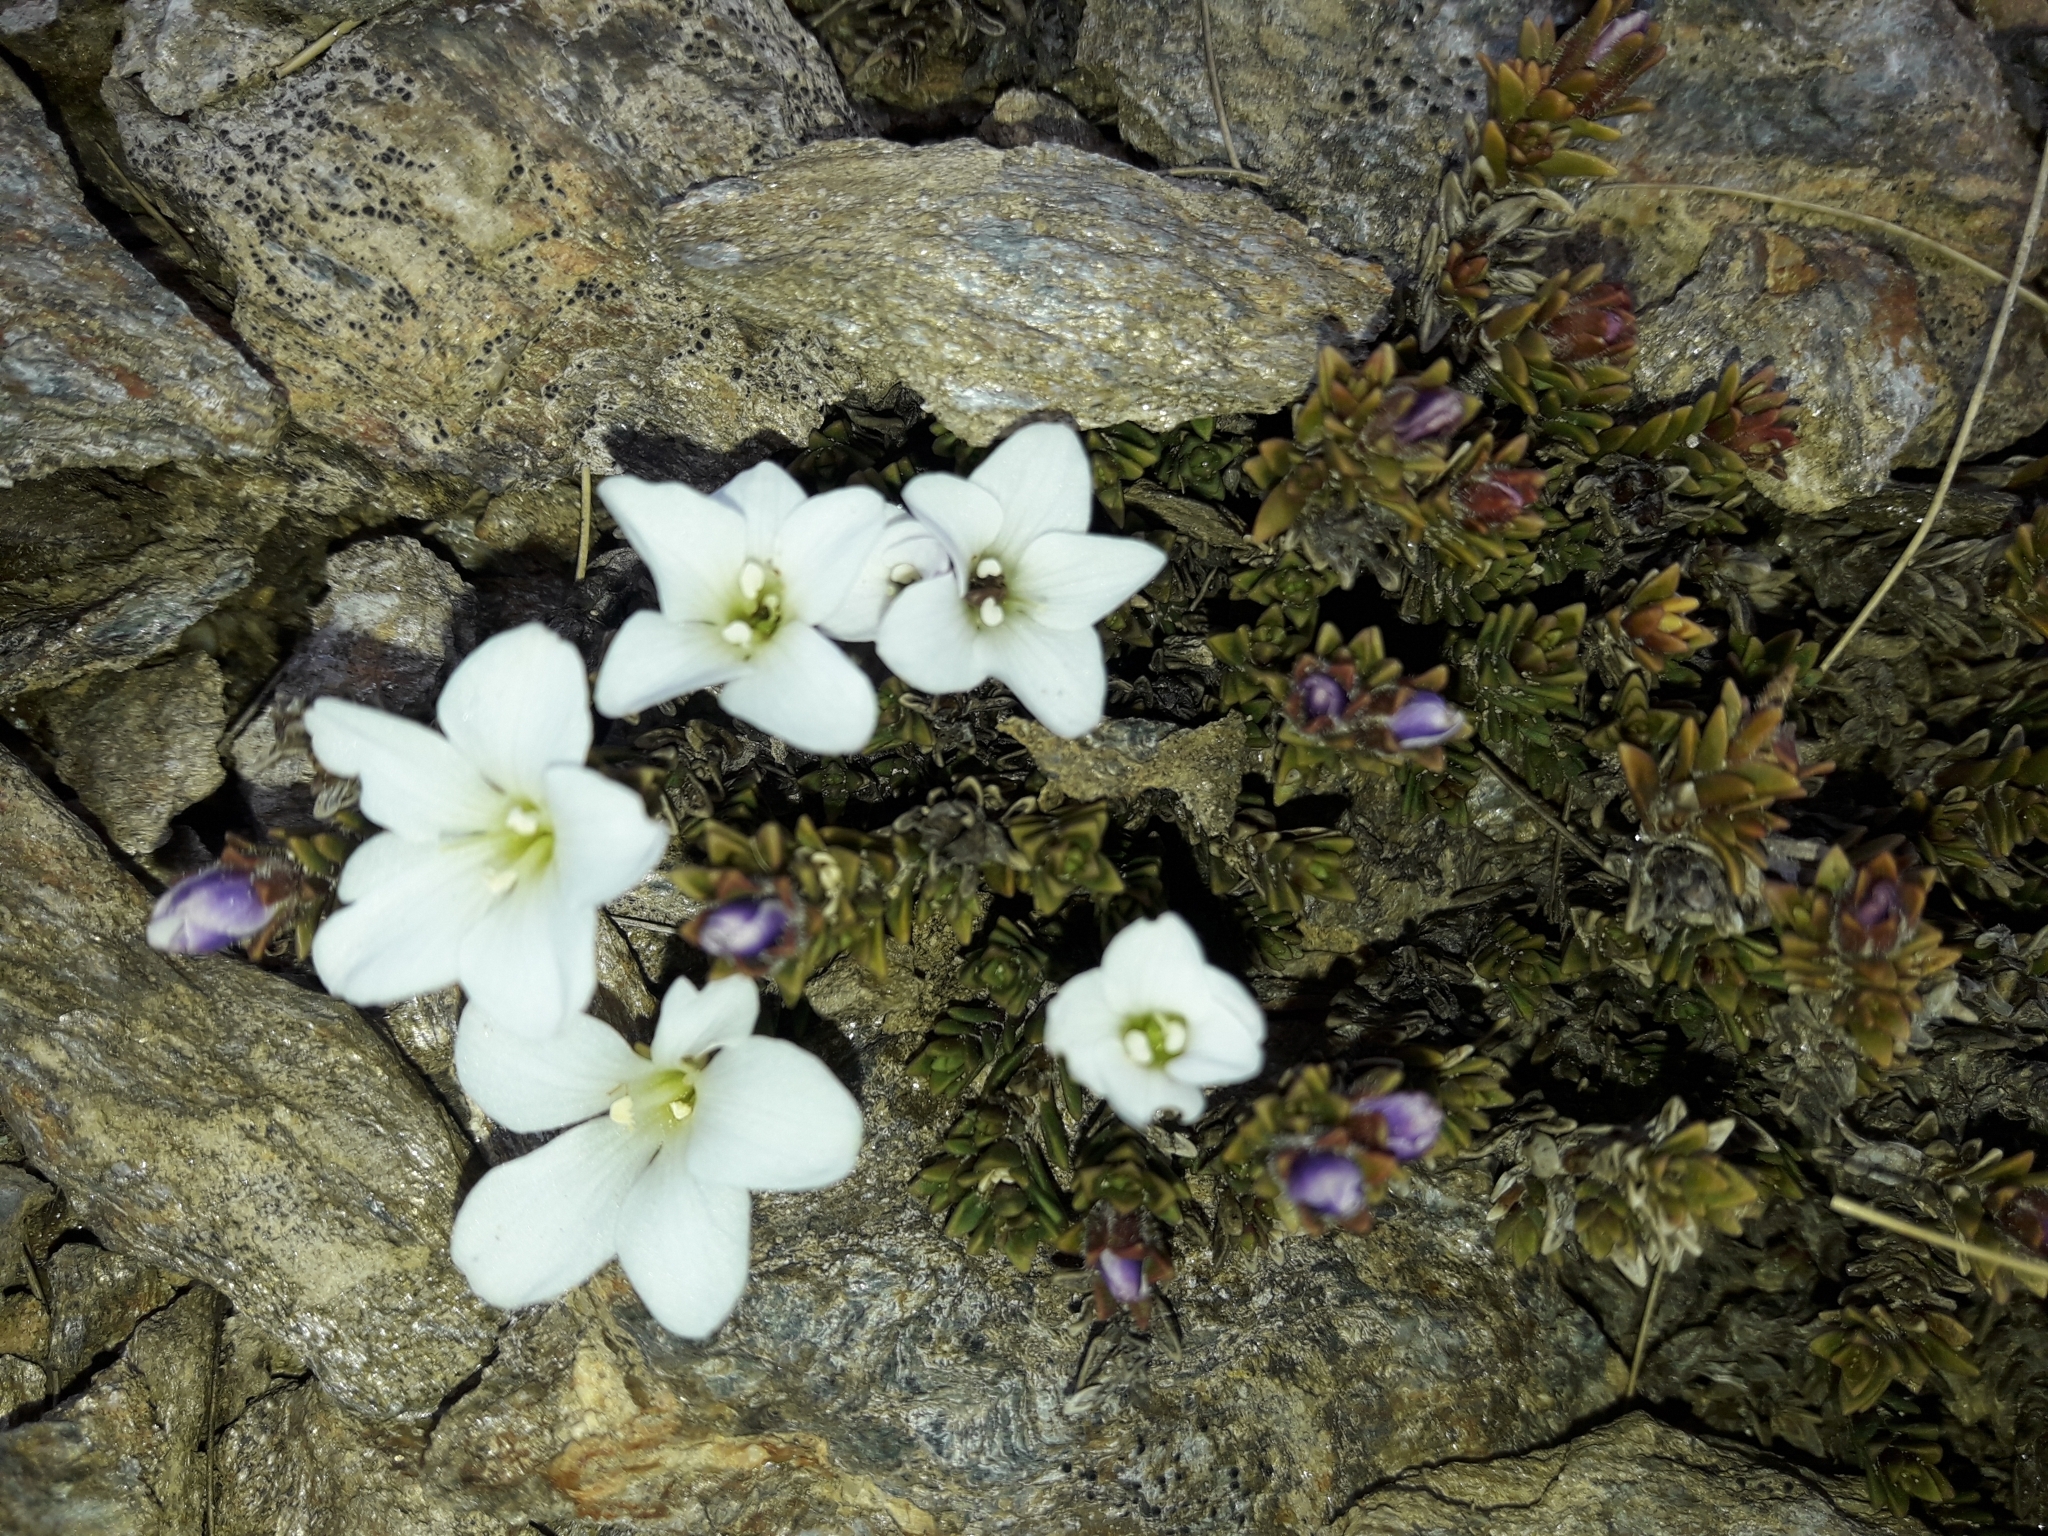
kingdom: Plantae
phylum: Tracheophyta
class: Magnoliopsida
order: Lamiales
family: Plantaginaceae
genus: Veronica
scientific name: Veronica densifolia
